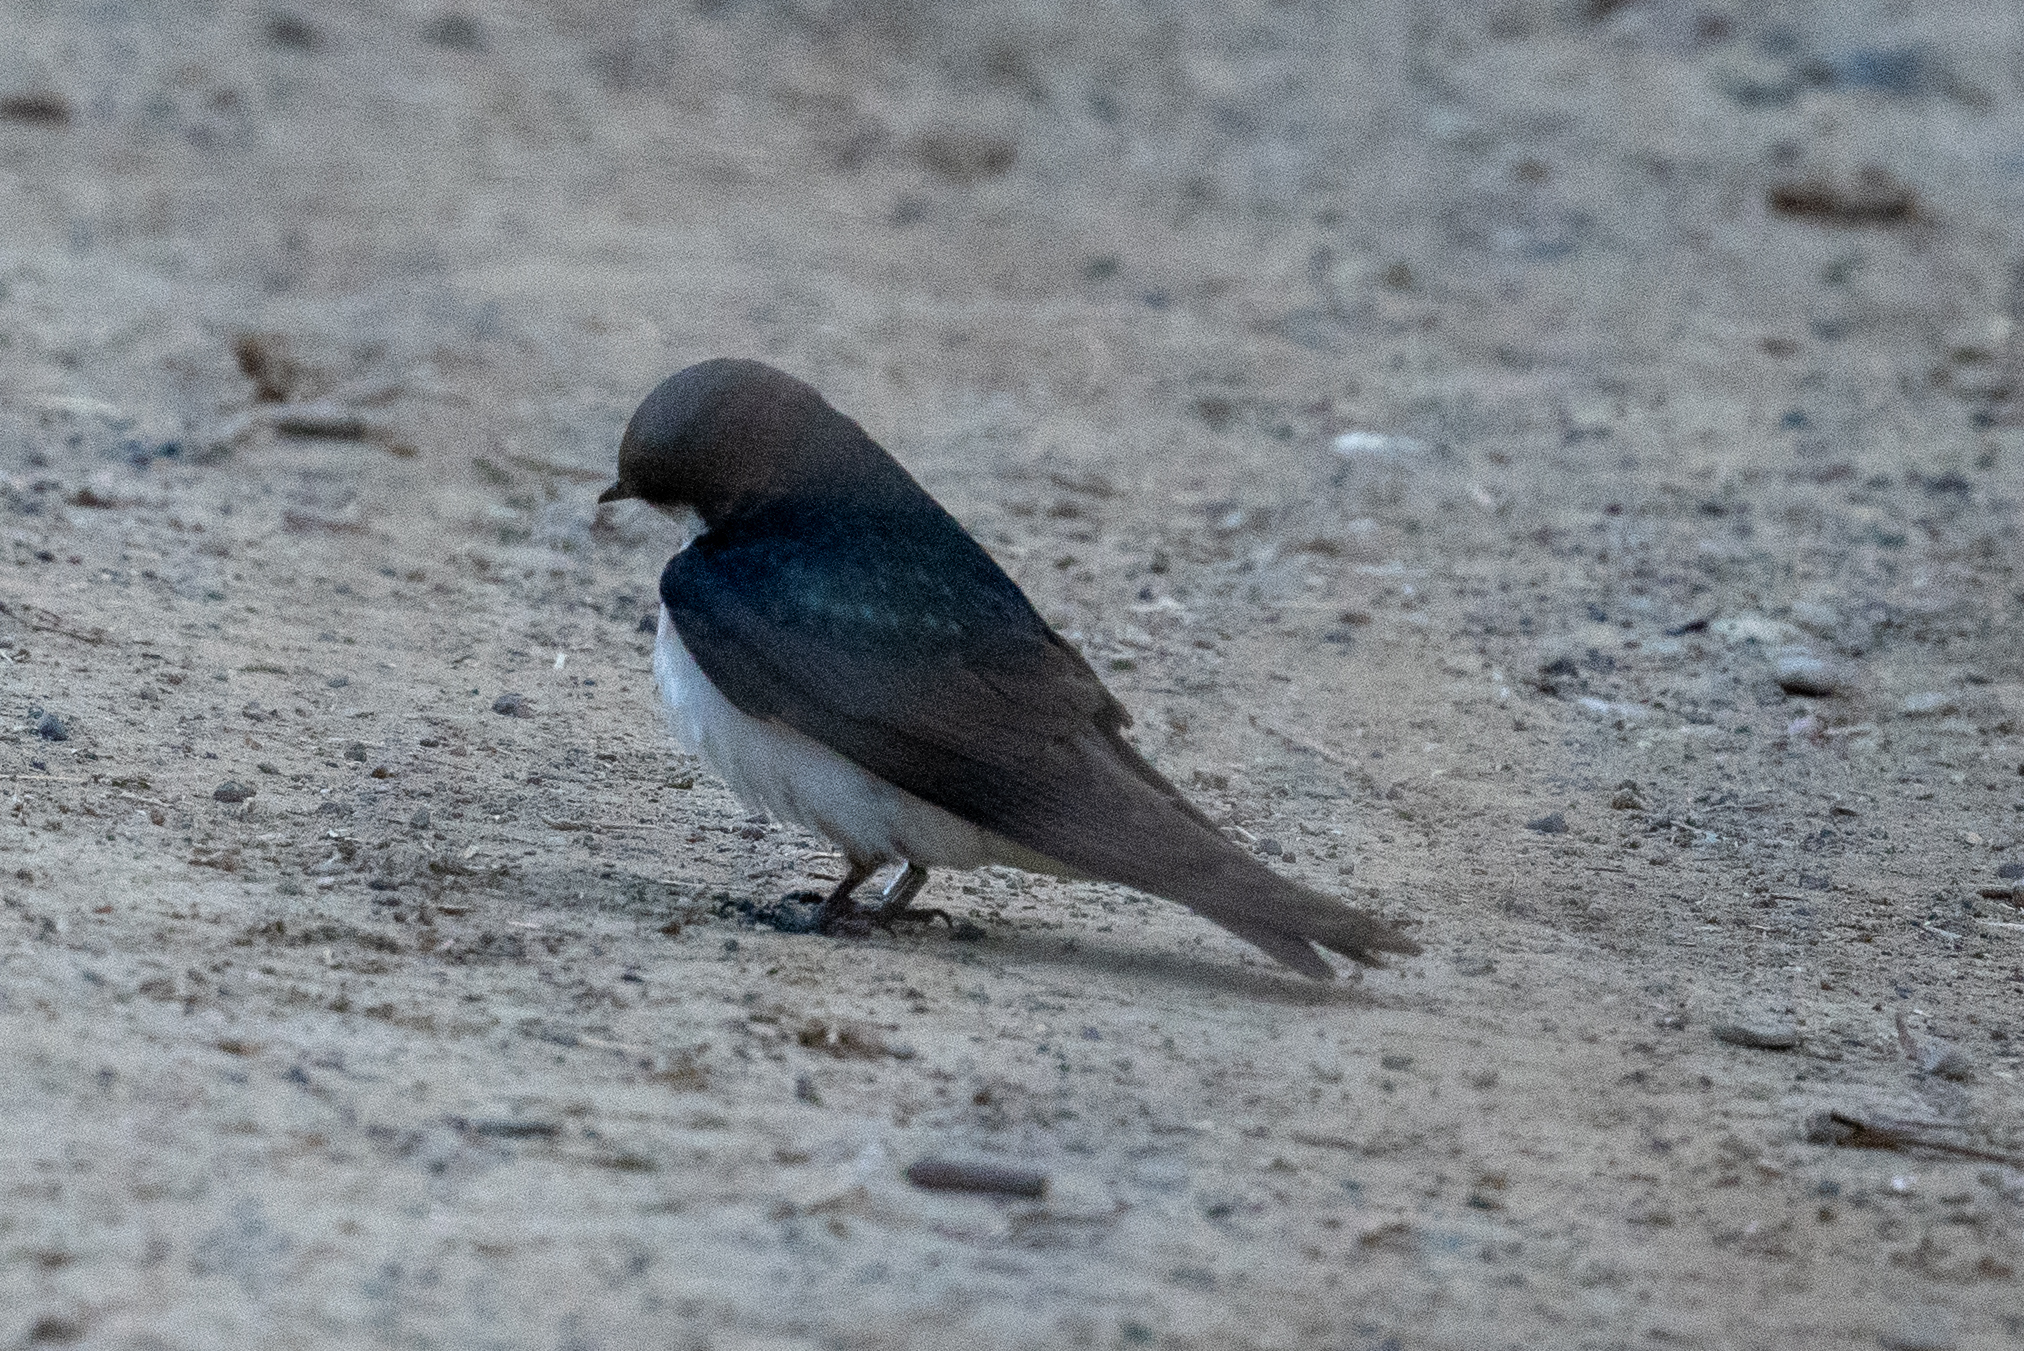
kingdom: Animalia
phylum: Chordata
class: Aves
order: Passeriformes
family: Hirundinidae
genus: Tachycineta
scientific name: Tachycineta bicolor
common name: Tree swallow
